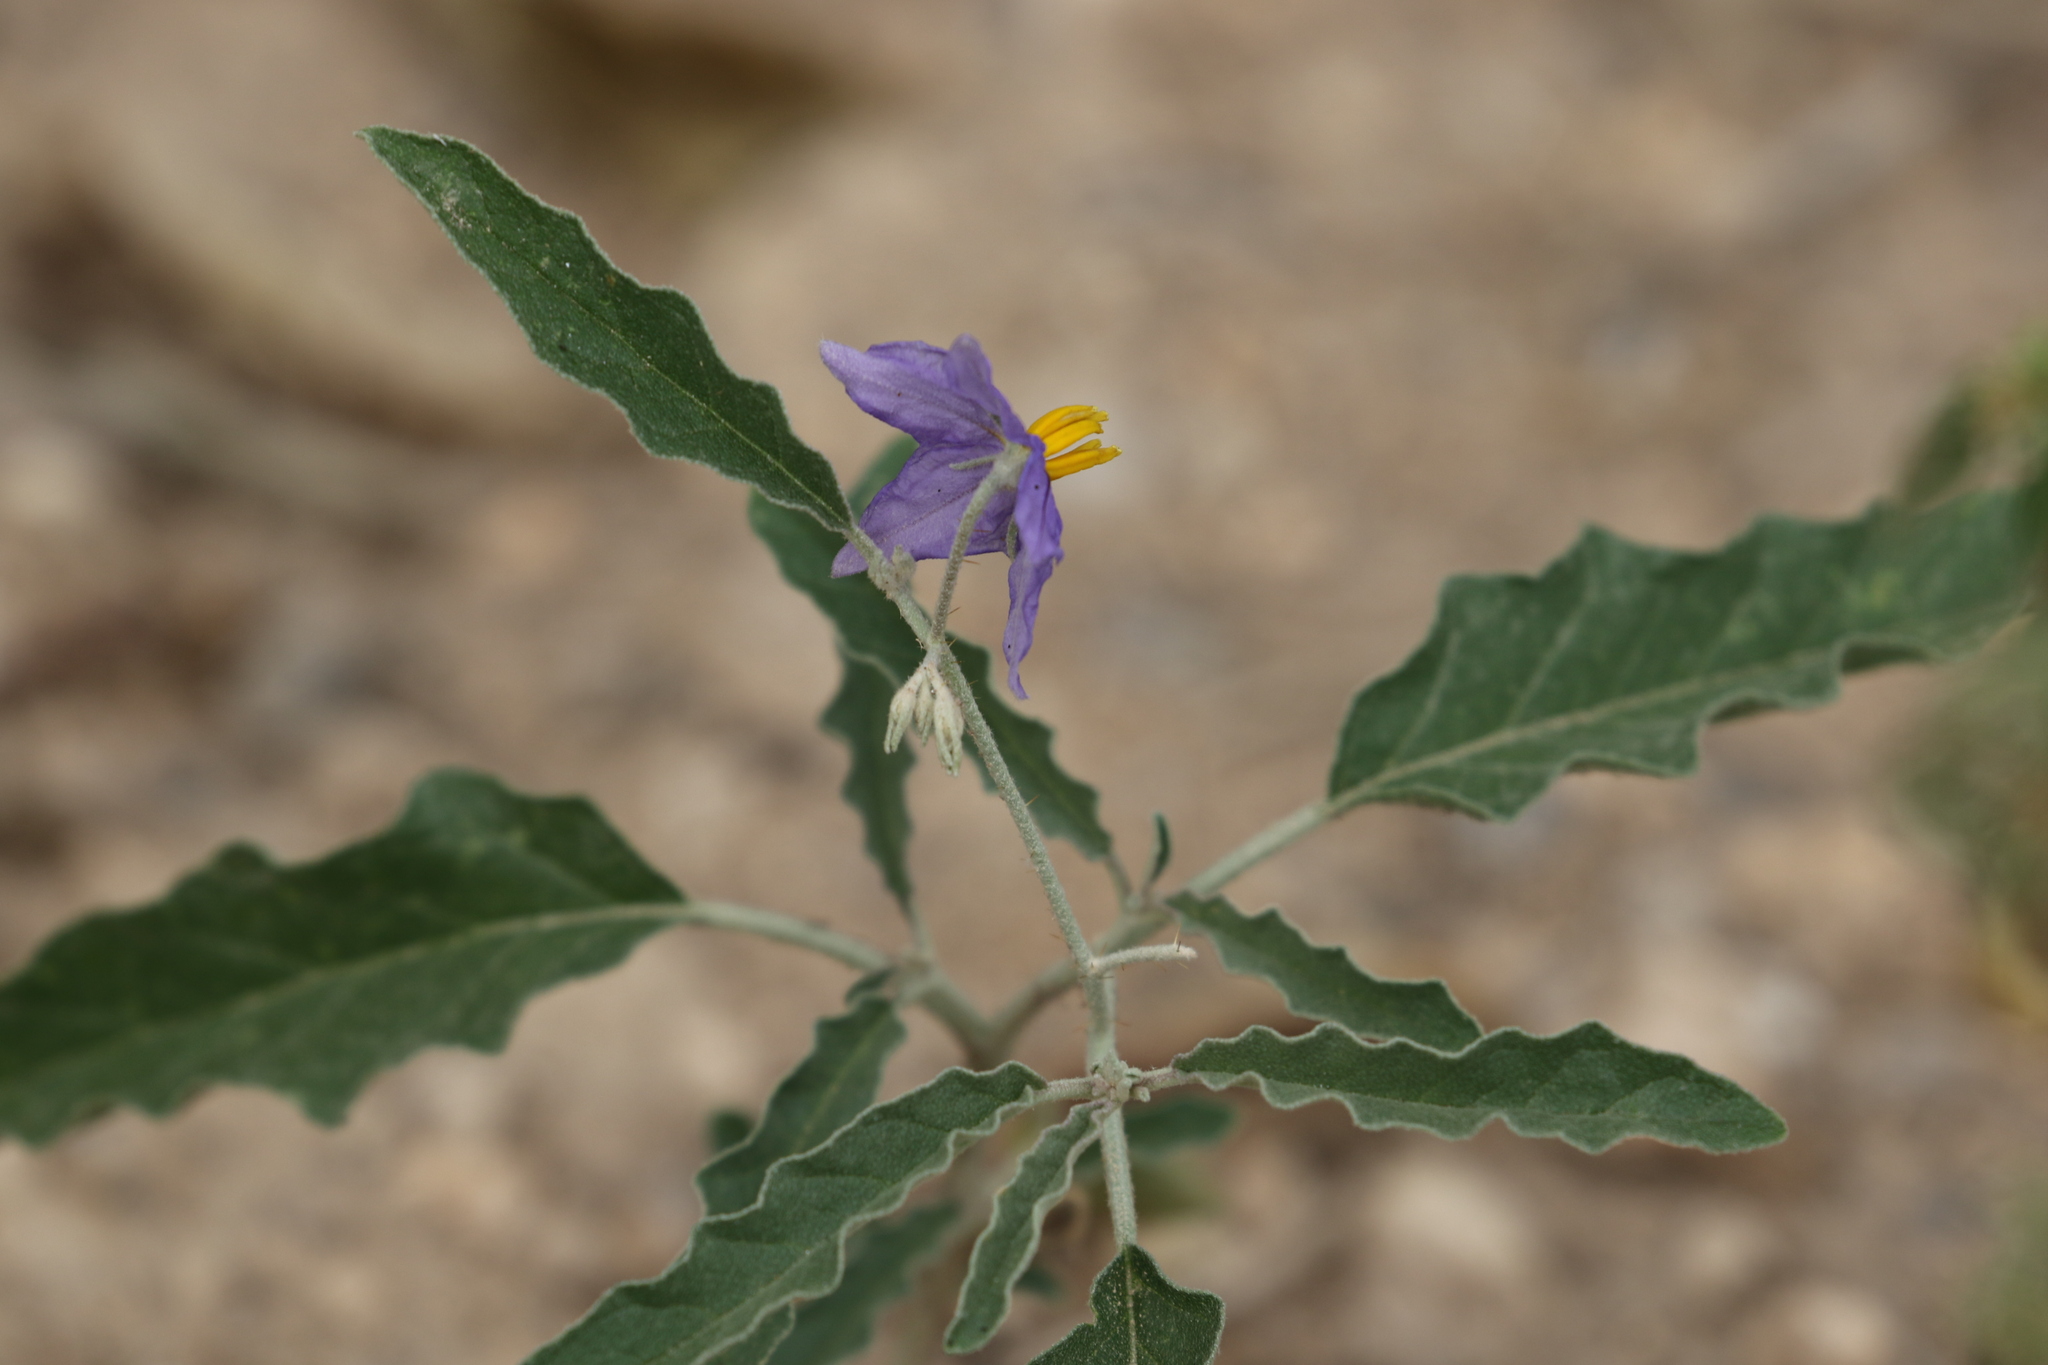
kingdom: Plantae
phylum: Tracheophyta
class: Magnoliopsida
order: Solanales
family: Solanaceae
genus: Solanum
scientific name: Solanum elaeagnifolium
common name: Silverleaf nightshade
